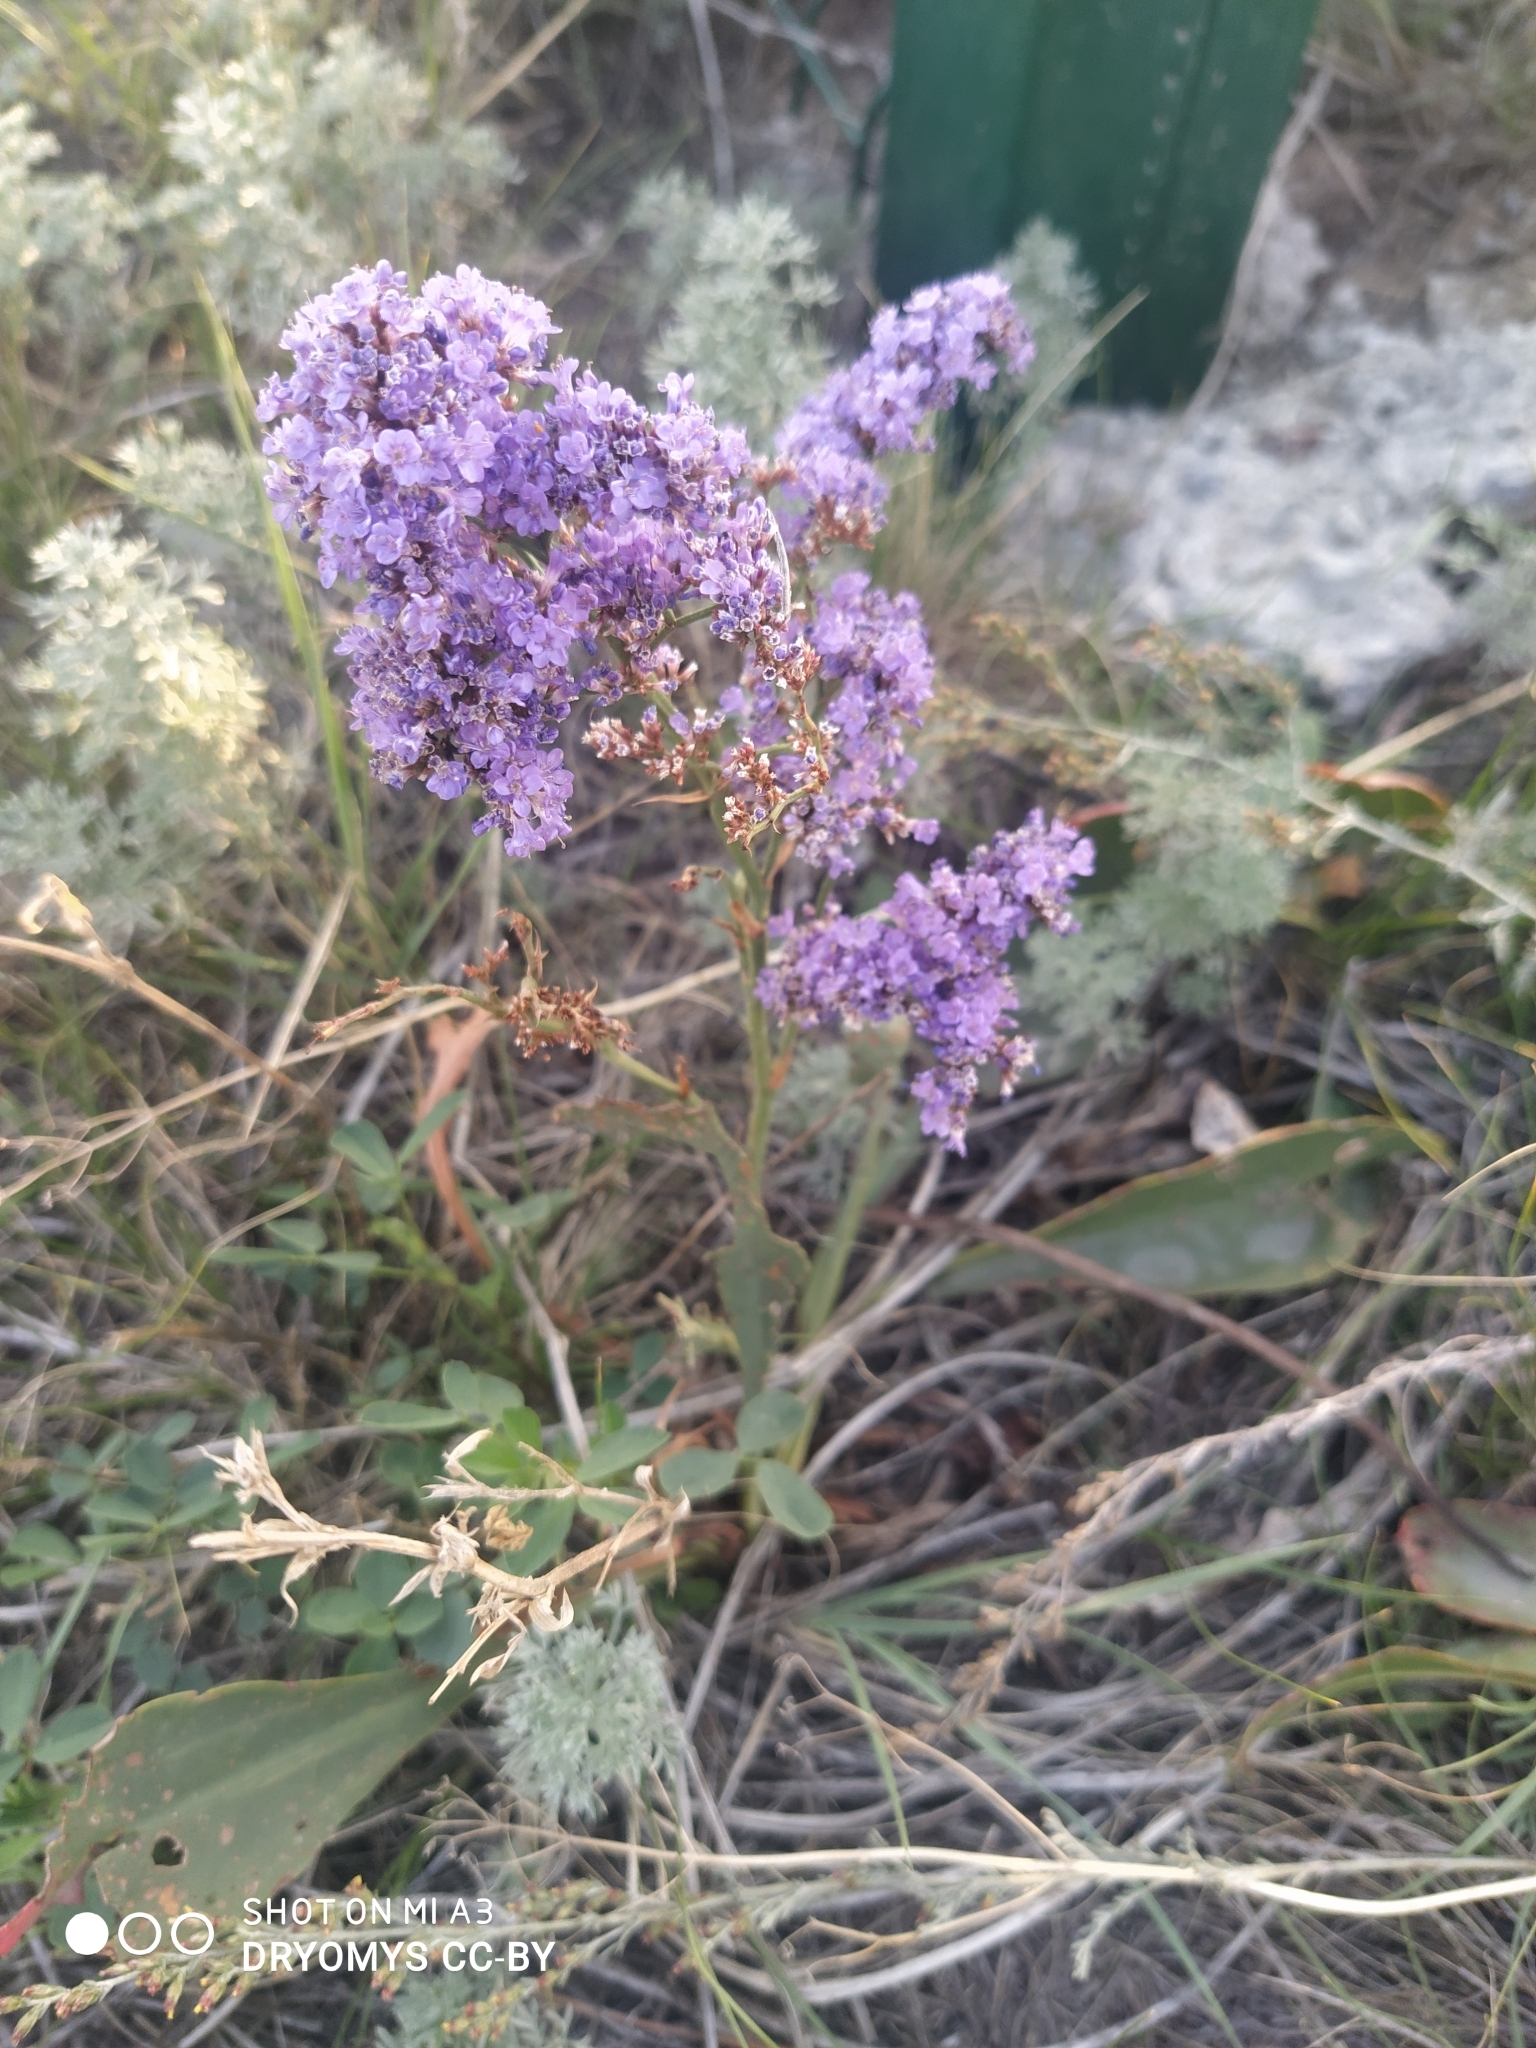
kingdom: Plantae
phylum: Tracheophyta
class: Magnoliopsida
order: Caryophyllales
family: Plumbaginaceae
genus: Limonium
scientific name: Limonium gmelini
